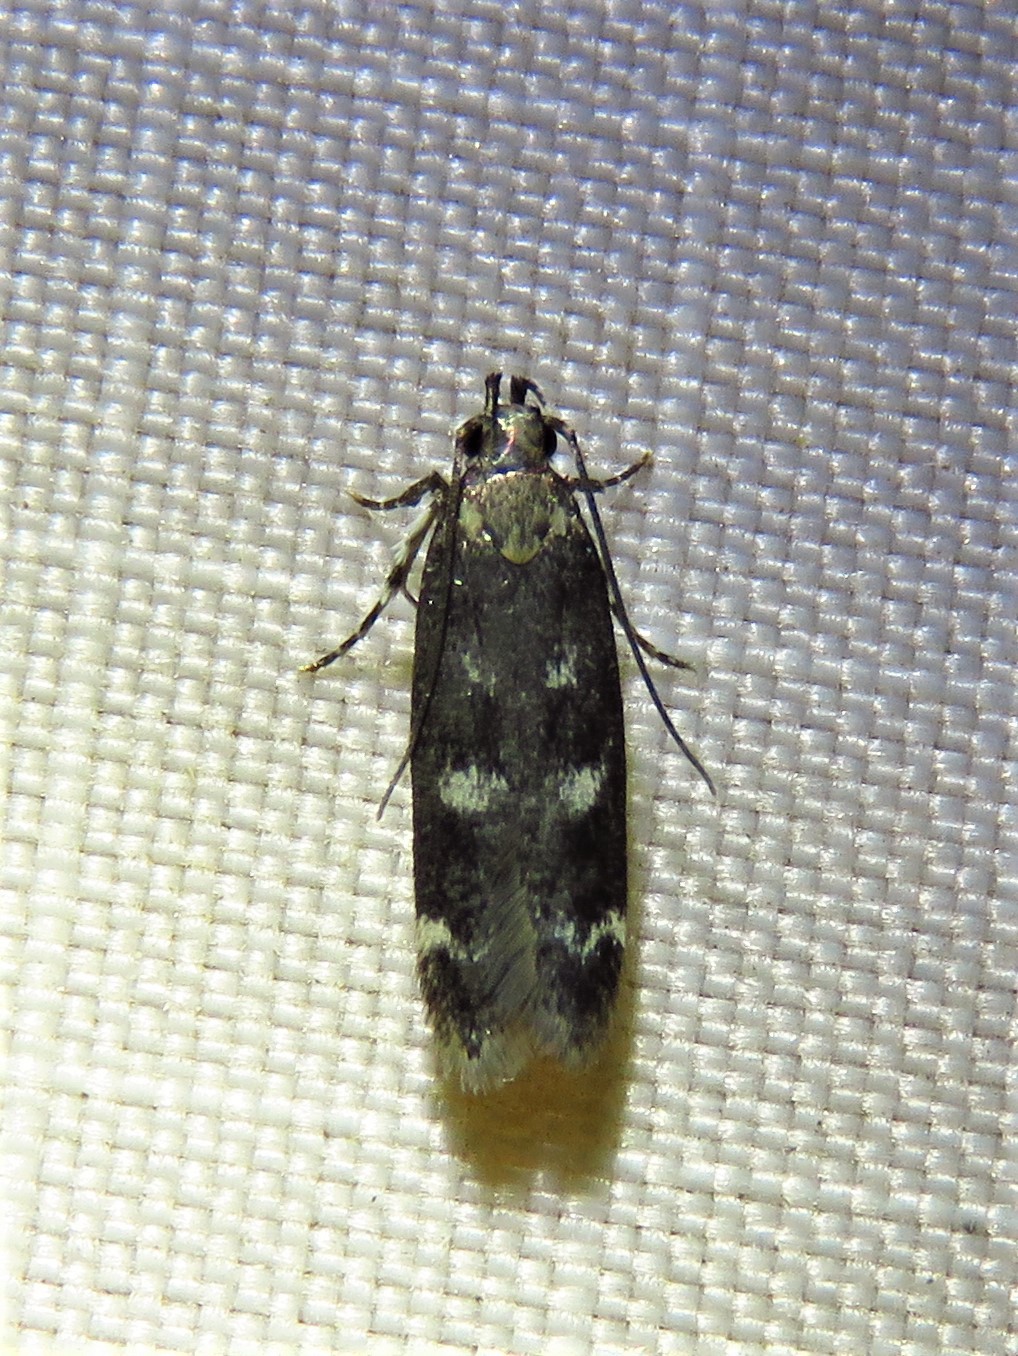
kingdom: Animalia
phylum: Arthropoda
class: Insecta
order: Lepidoptera
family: Gelechiidae
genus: Fascista
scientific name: Fascista bimaculella
